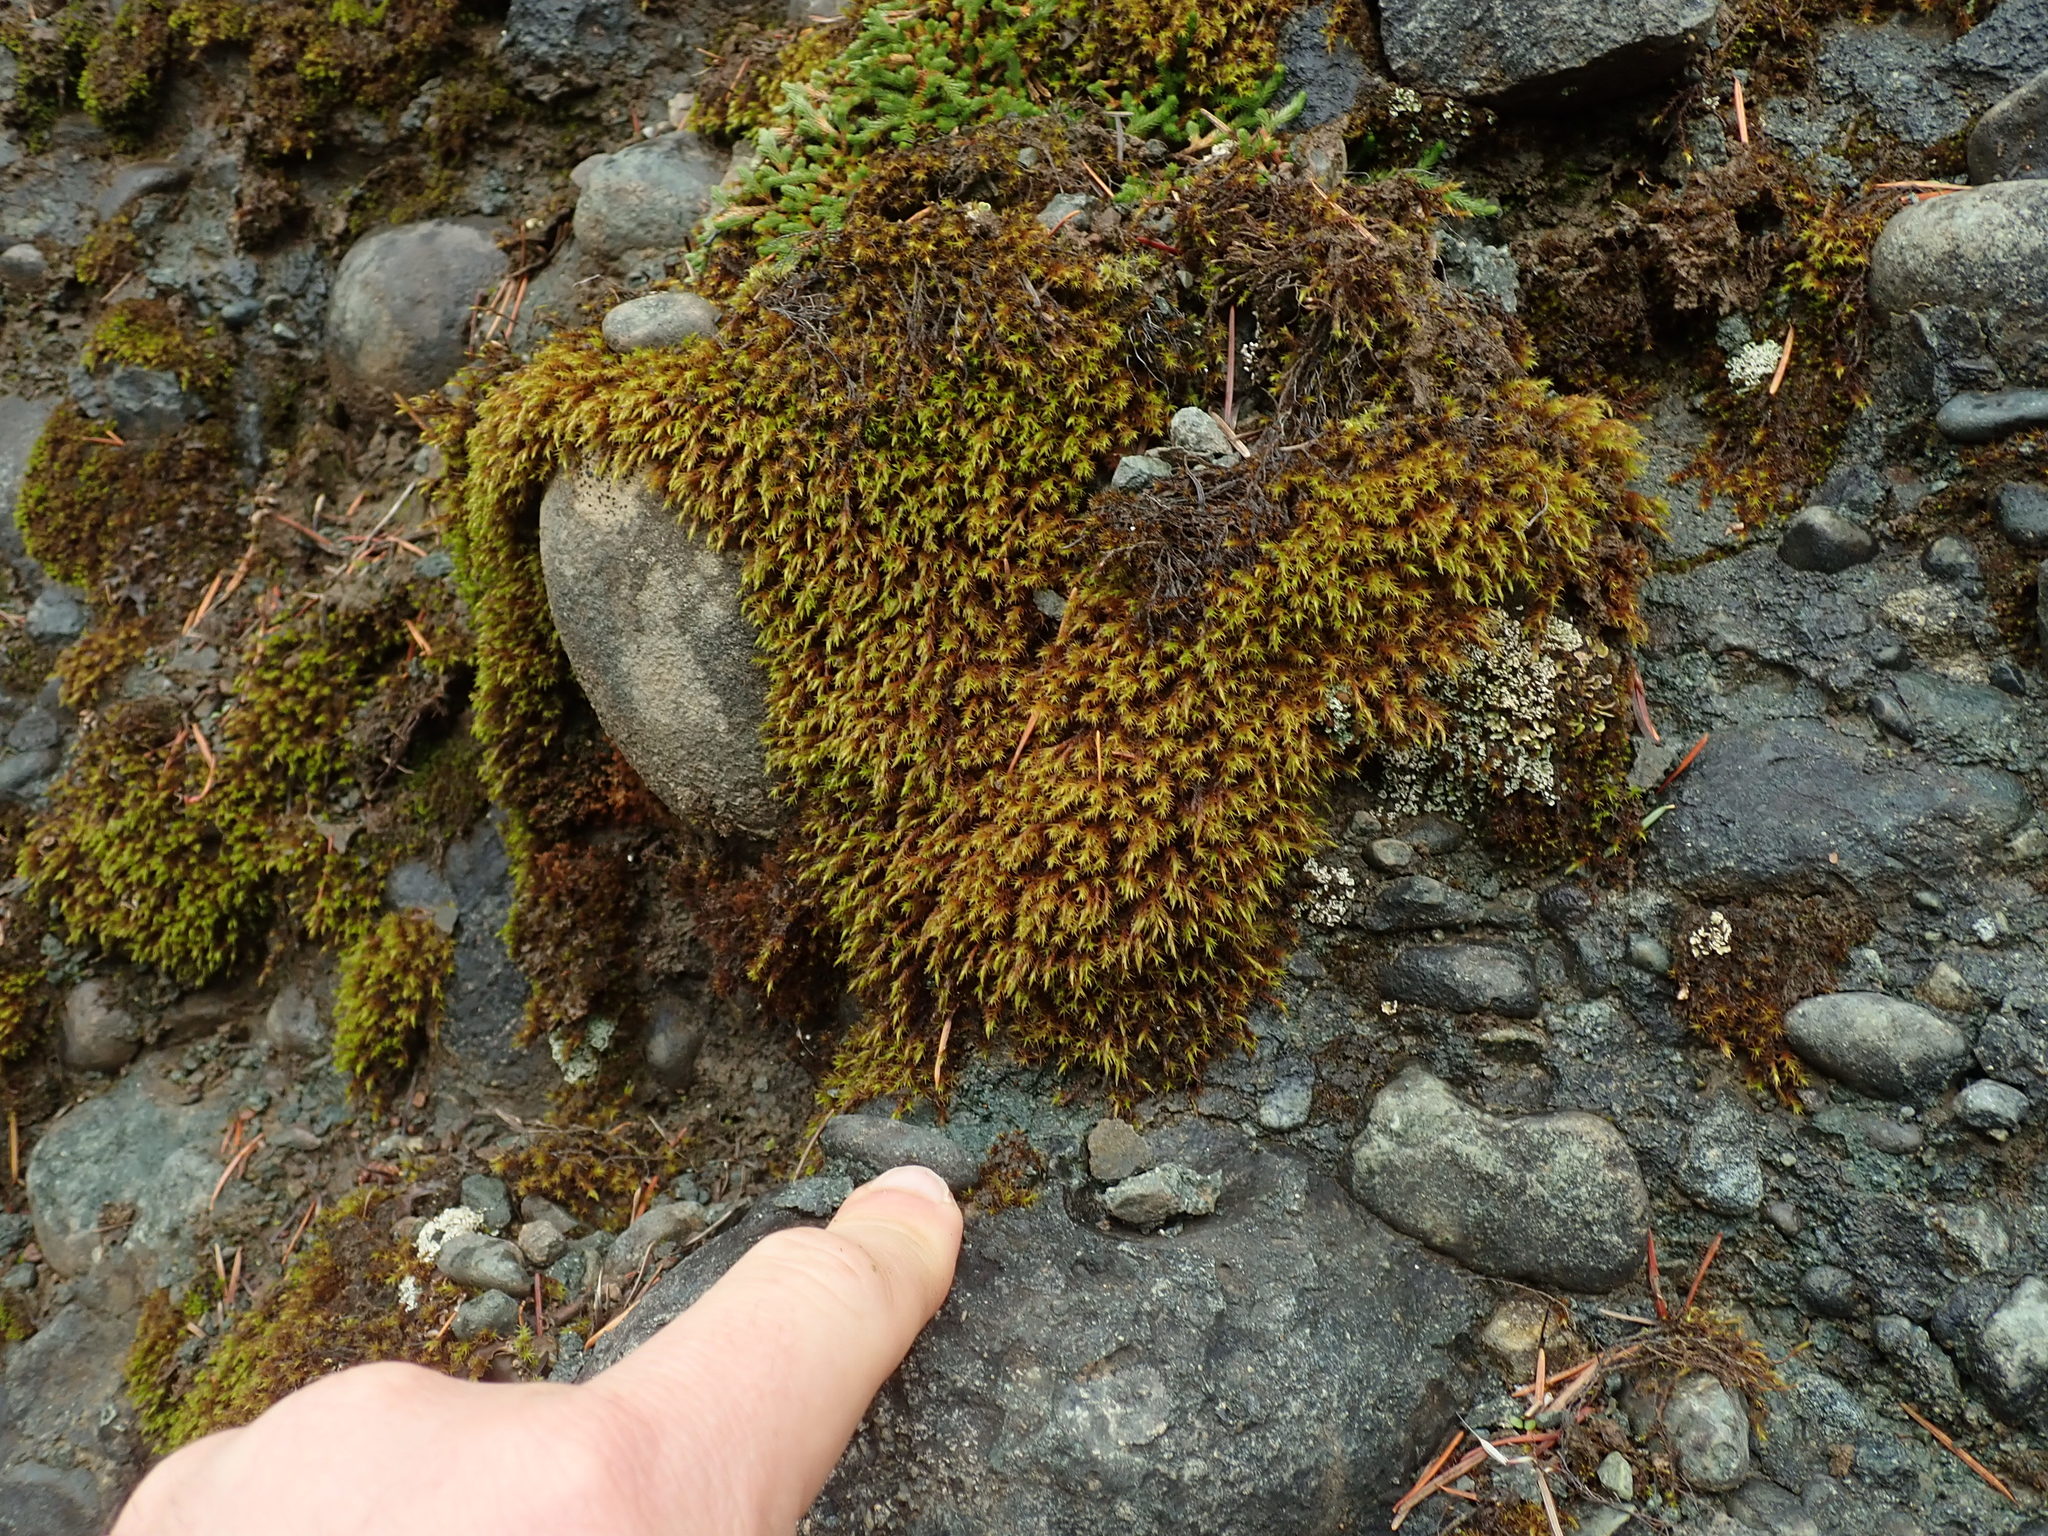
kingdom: Plantae
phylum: Bryophyta
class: Bryopsida
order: Grimmiales
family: Grimmiaceae
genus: Schistidium
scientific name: Schistidium papillosum
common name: Papillose bloom moss
